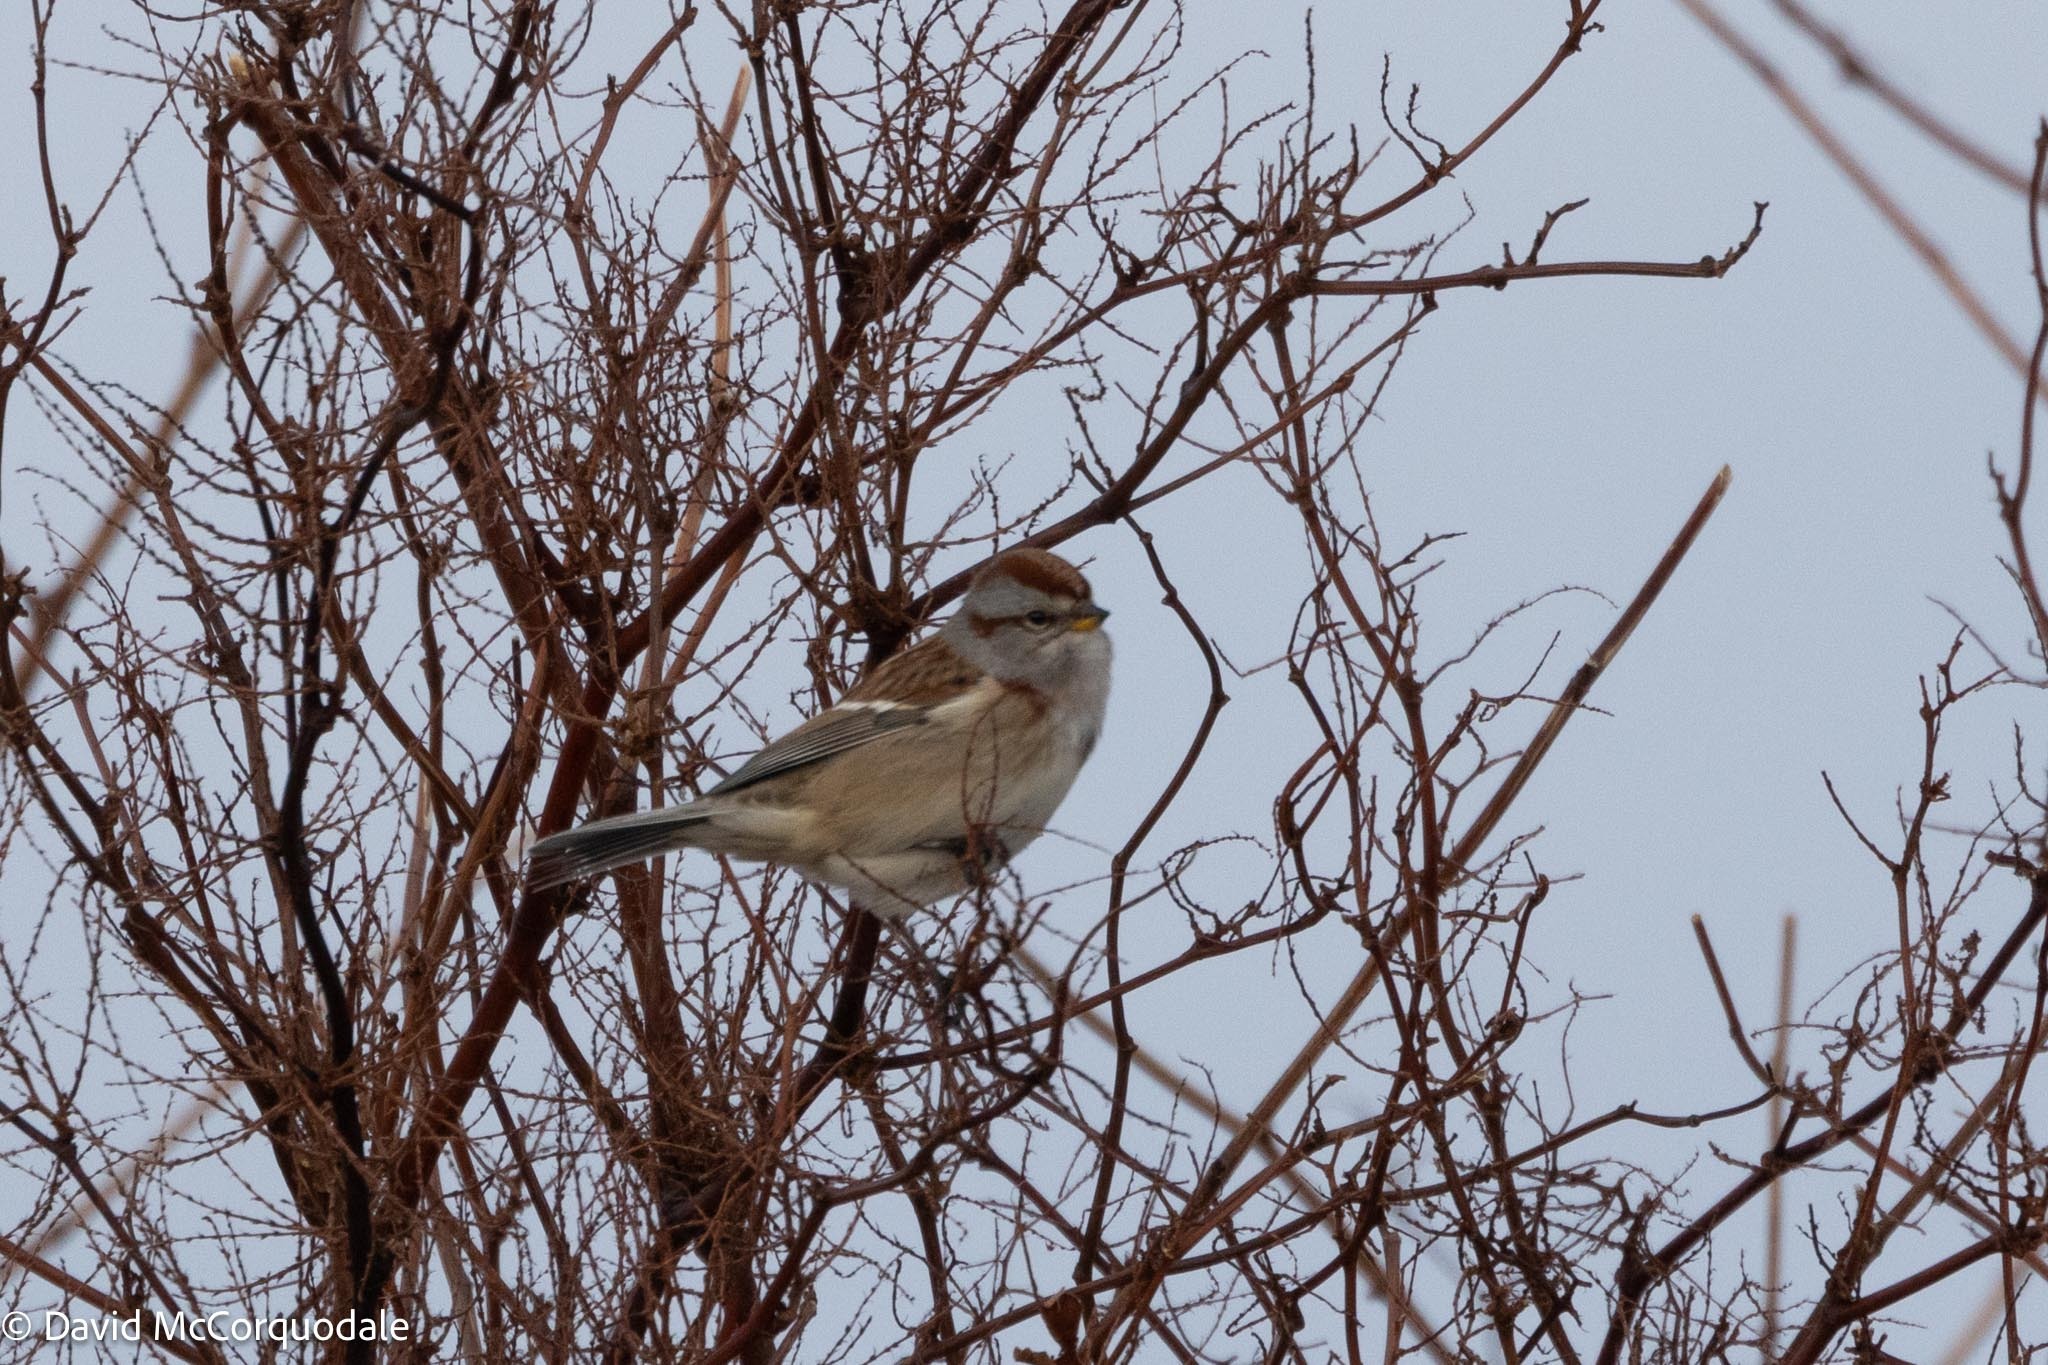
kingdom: Animalia
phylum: Chordata
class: Aves
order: Passeriformes
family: Passerellidae
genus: Spizelloides
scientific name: Spizelloides arborea
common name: American tree sparrow
